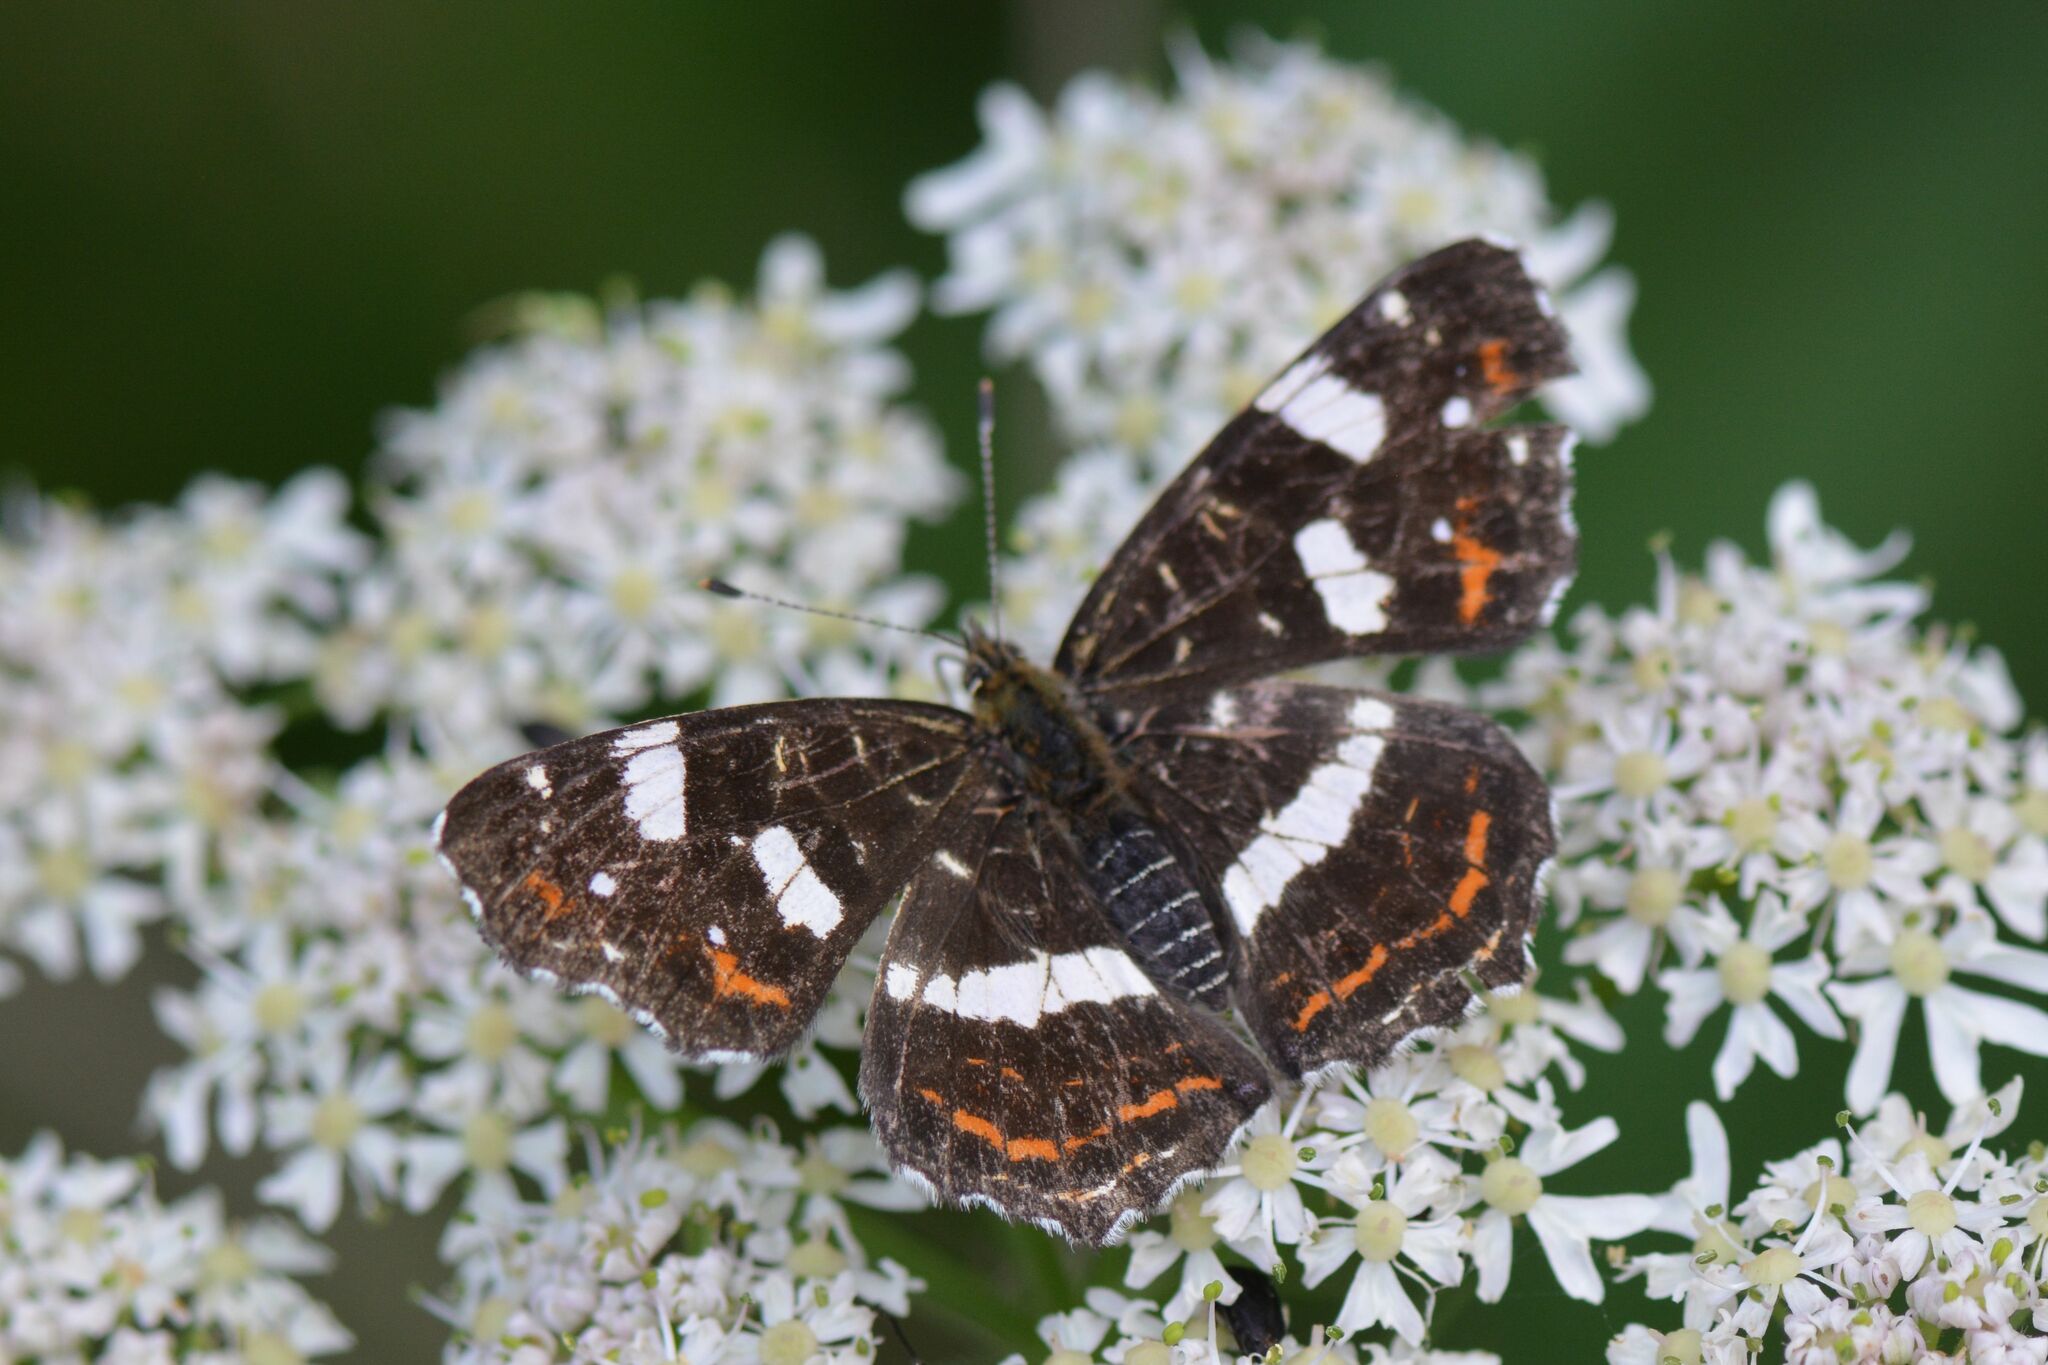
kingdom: Animalia
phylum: Arthropoda
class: Insecta
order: Lepidoptera
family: Nymphalidae
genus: Araschnia
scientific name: Araschnia levana
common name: Map butterfly
